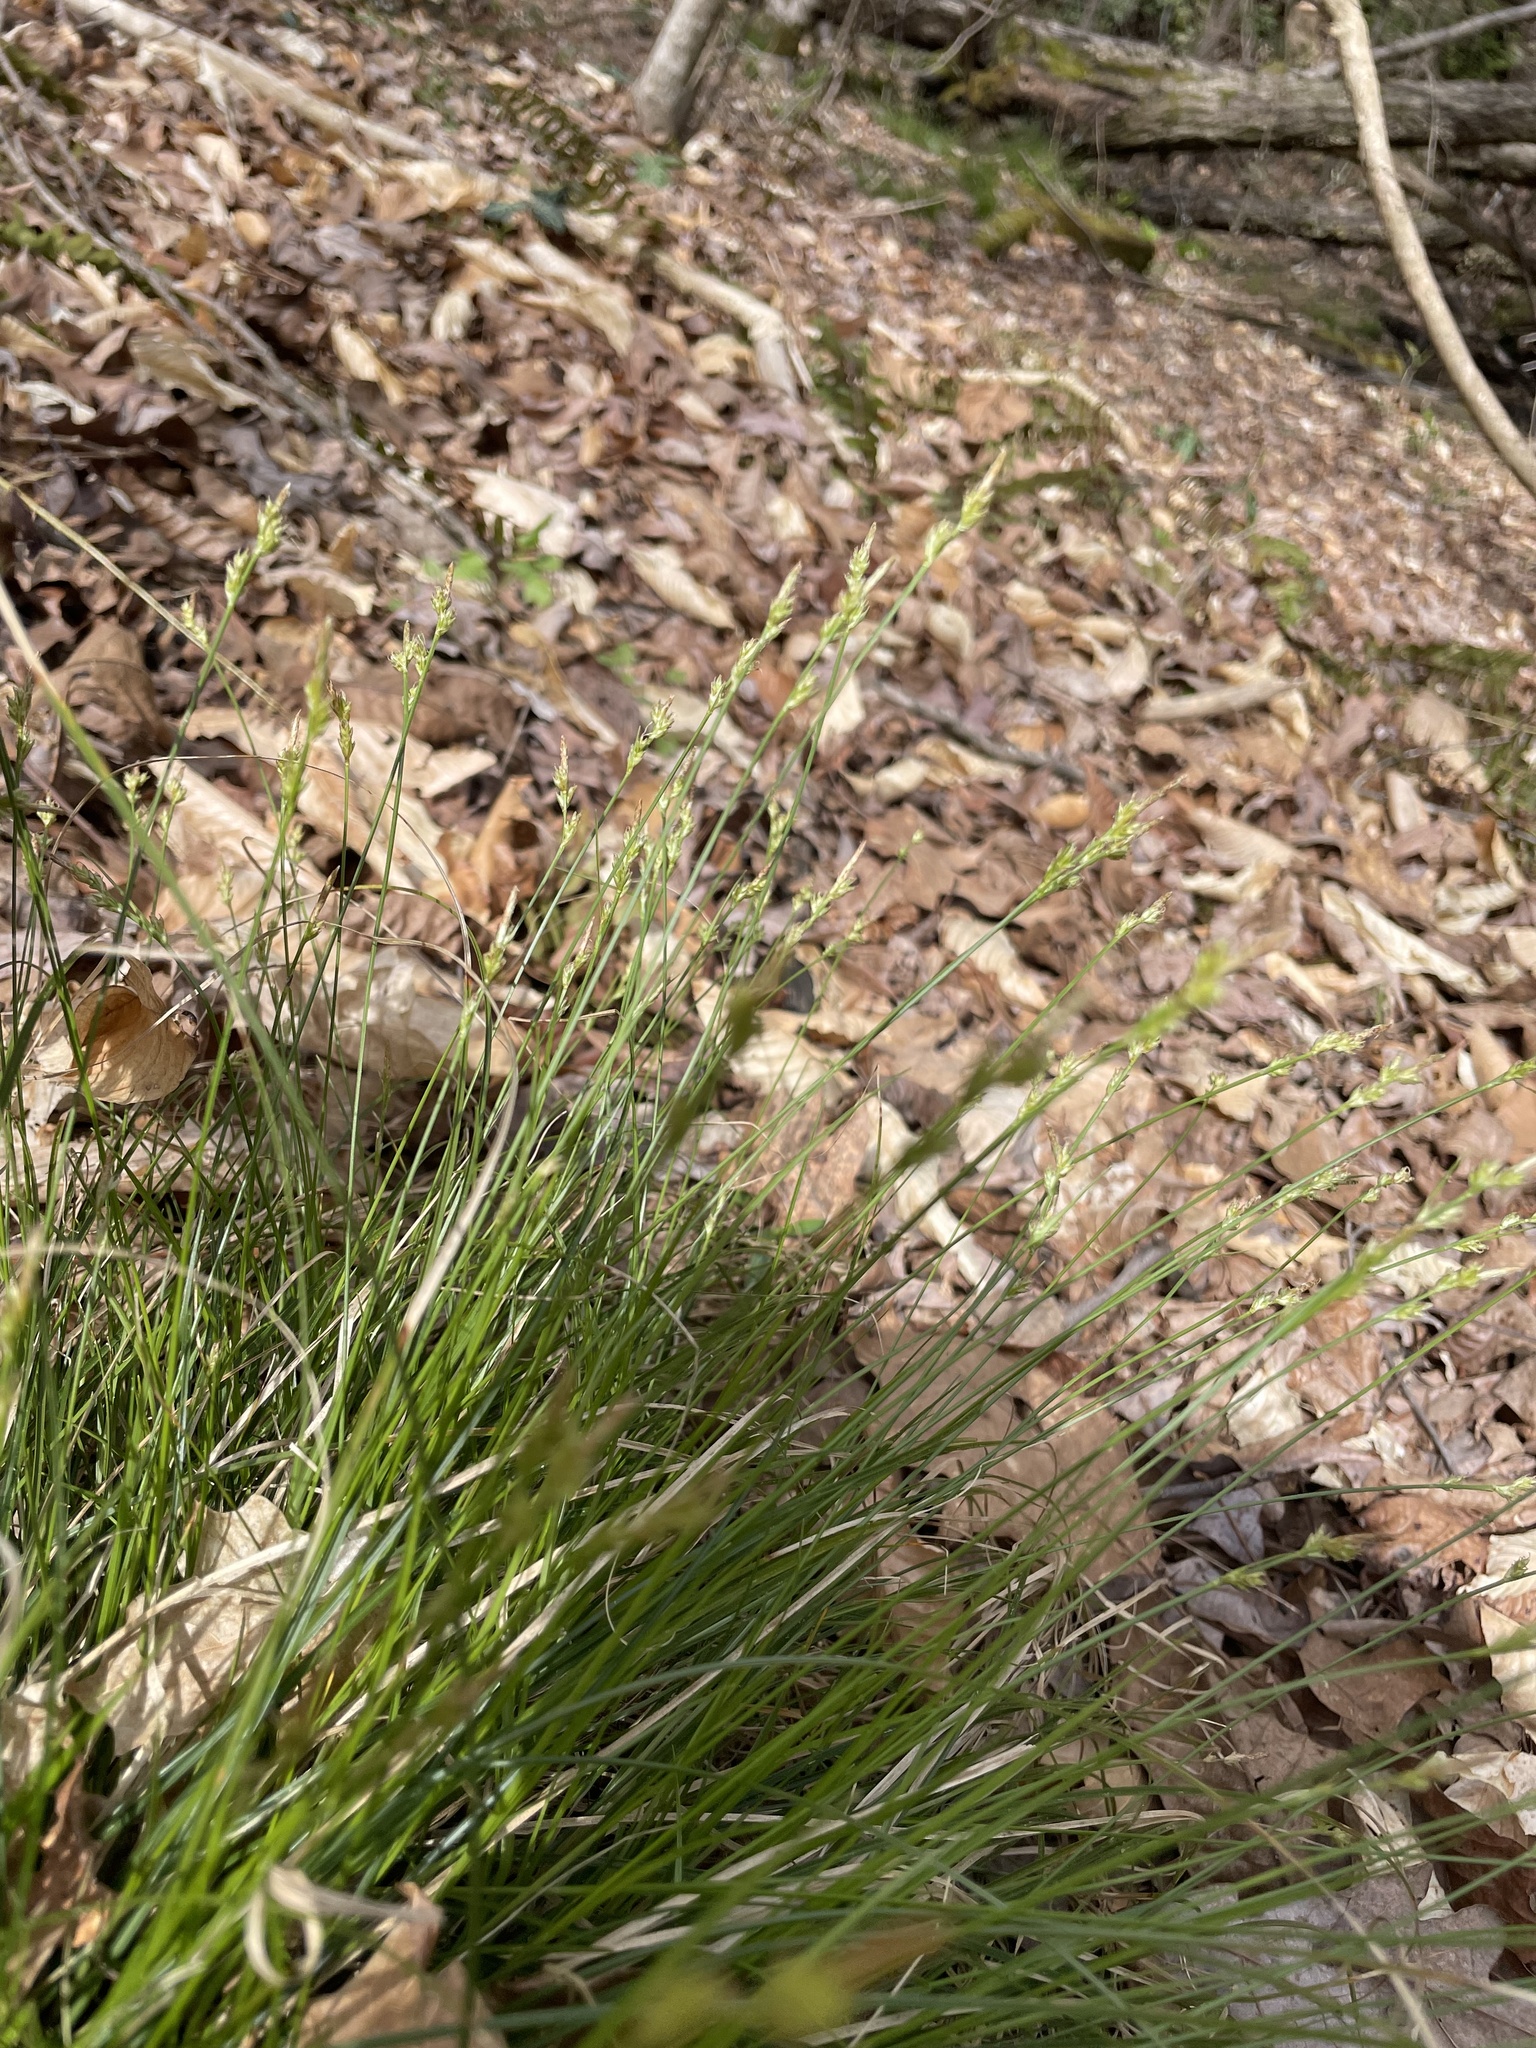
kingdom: Plantae
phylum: Tracheophyta
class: Liliopsida
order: Poales
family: Cyperaceae
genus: Carex
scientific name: Carex albicans
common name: Bellow-beaked sedge
